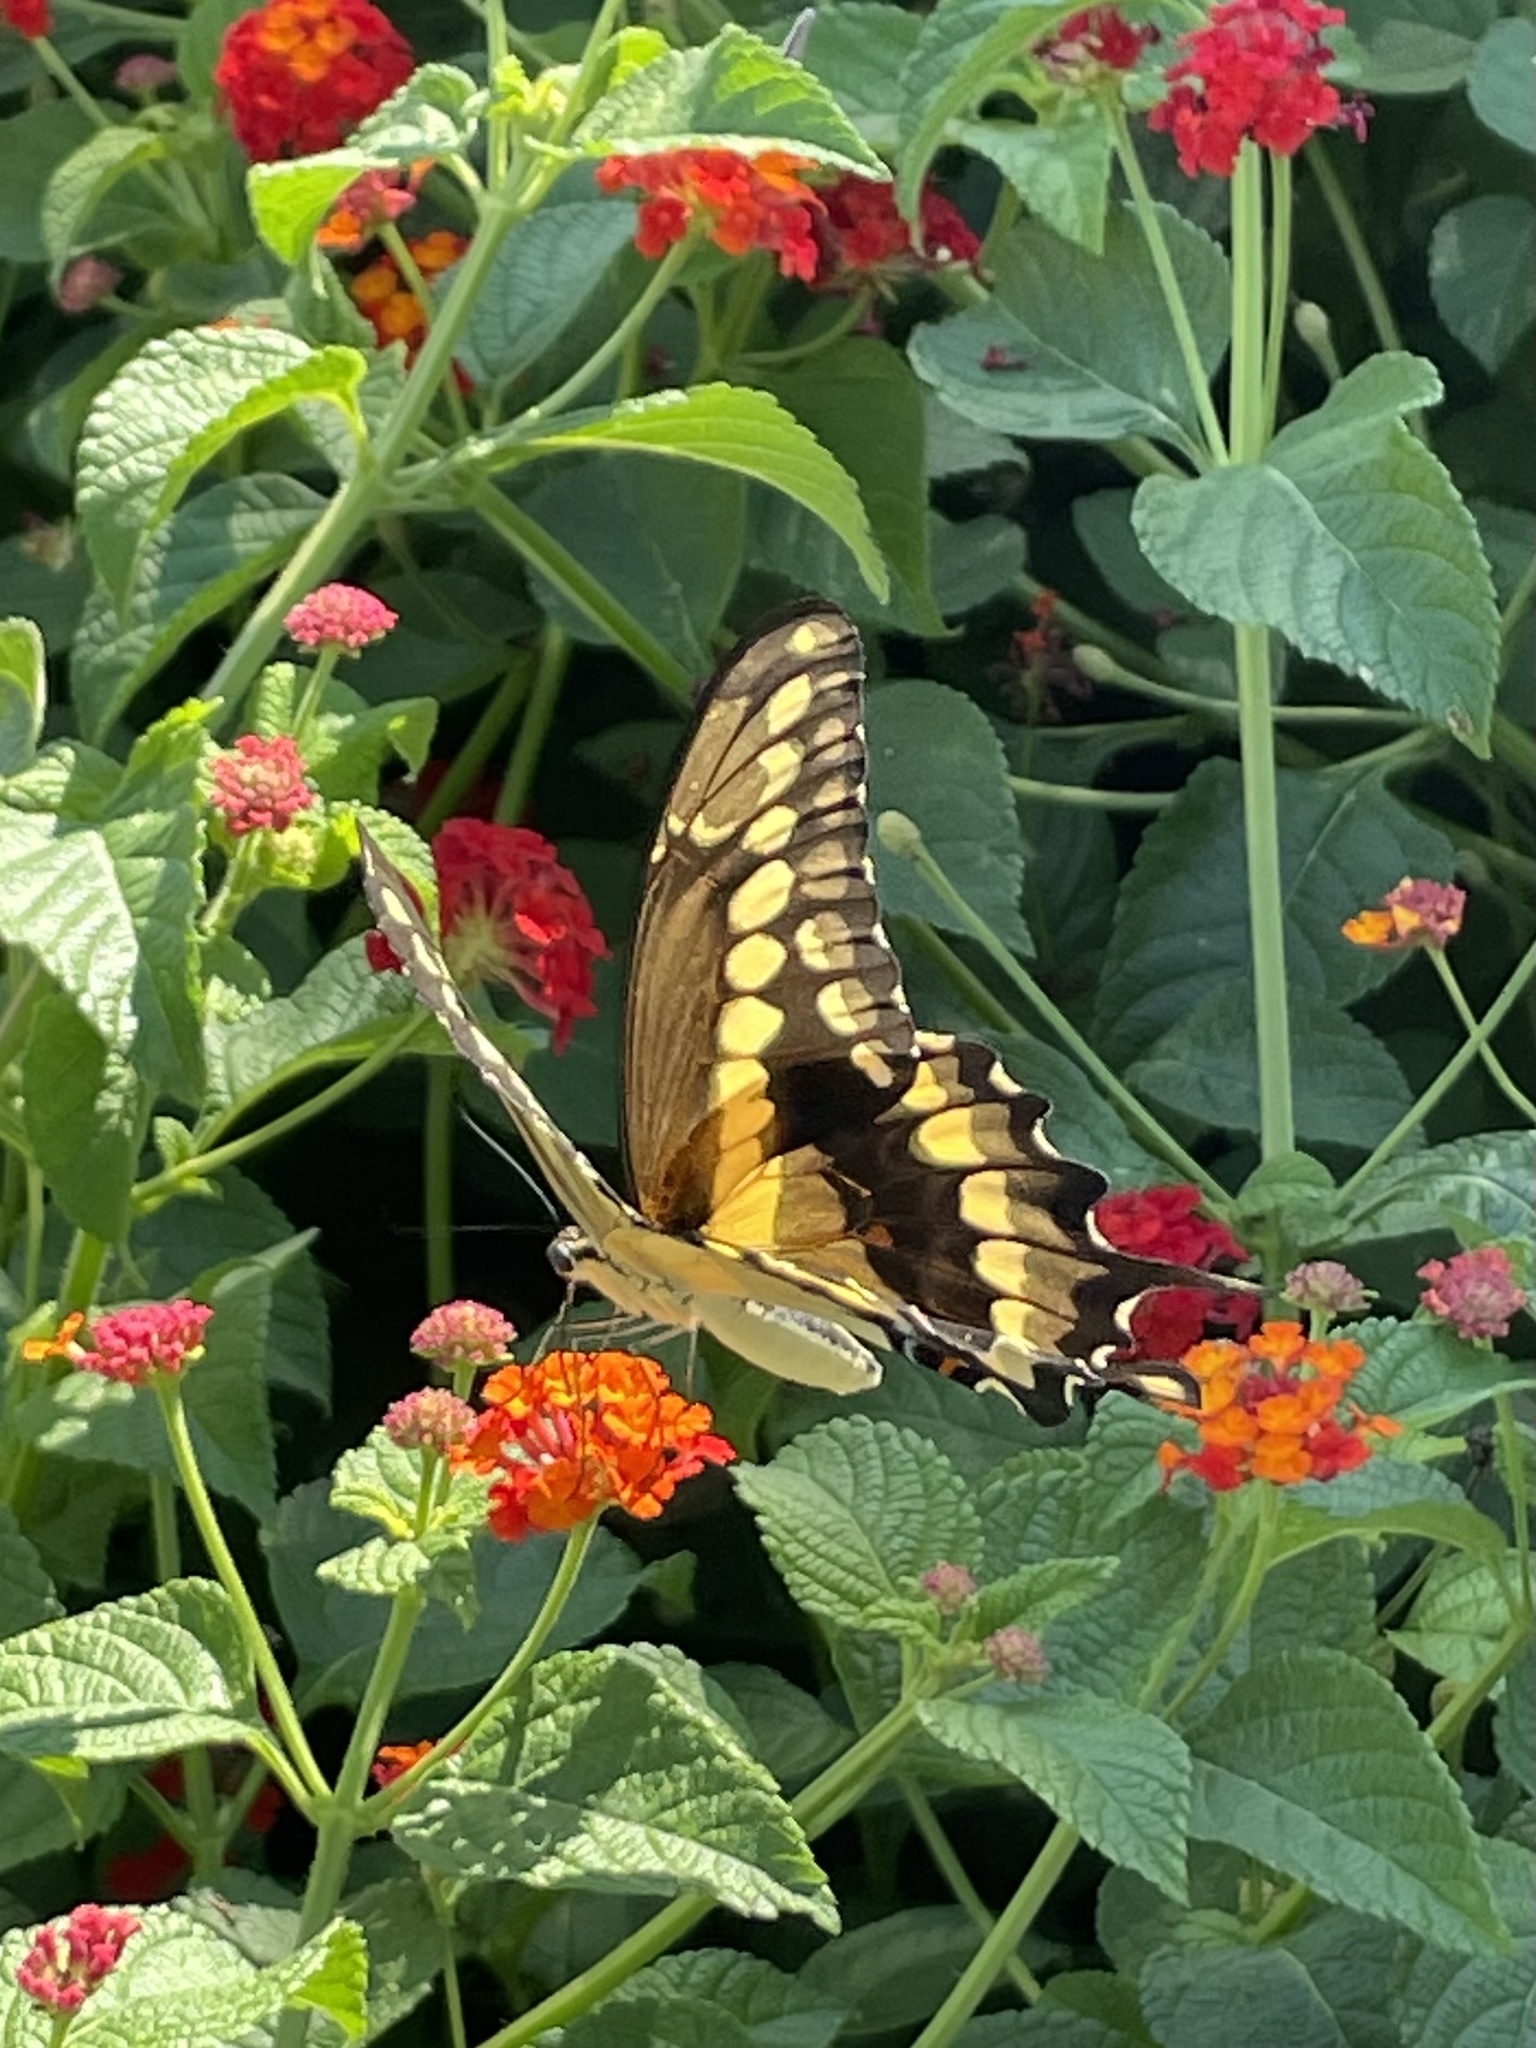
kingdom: Animalia
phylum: Arthropoda
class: Insecta
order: Lepidoptera
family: Papilionidae
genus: Papilio
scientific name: Papilio rumiko
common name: Western giant swallowtail
